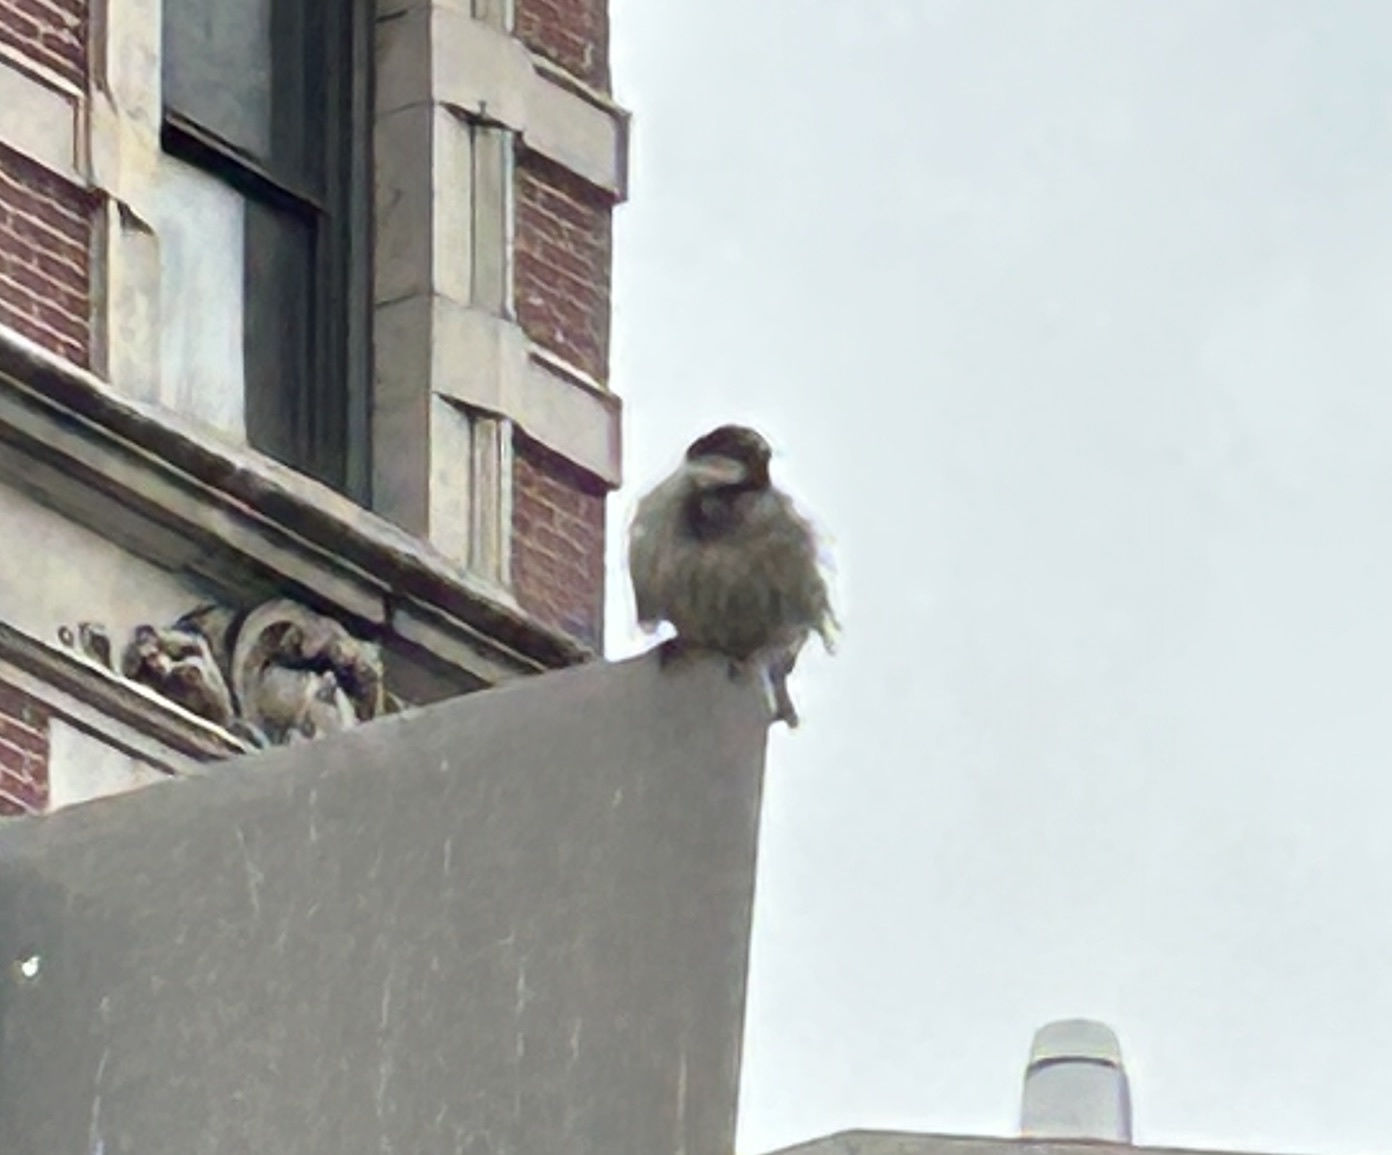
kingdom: Animalia
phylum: Chordata
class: Aves
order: Passeriformes
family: Passeridae
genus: Passer
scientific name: Passer domesticus
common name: House sparrow
